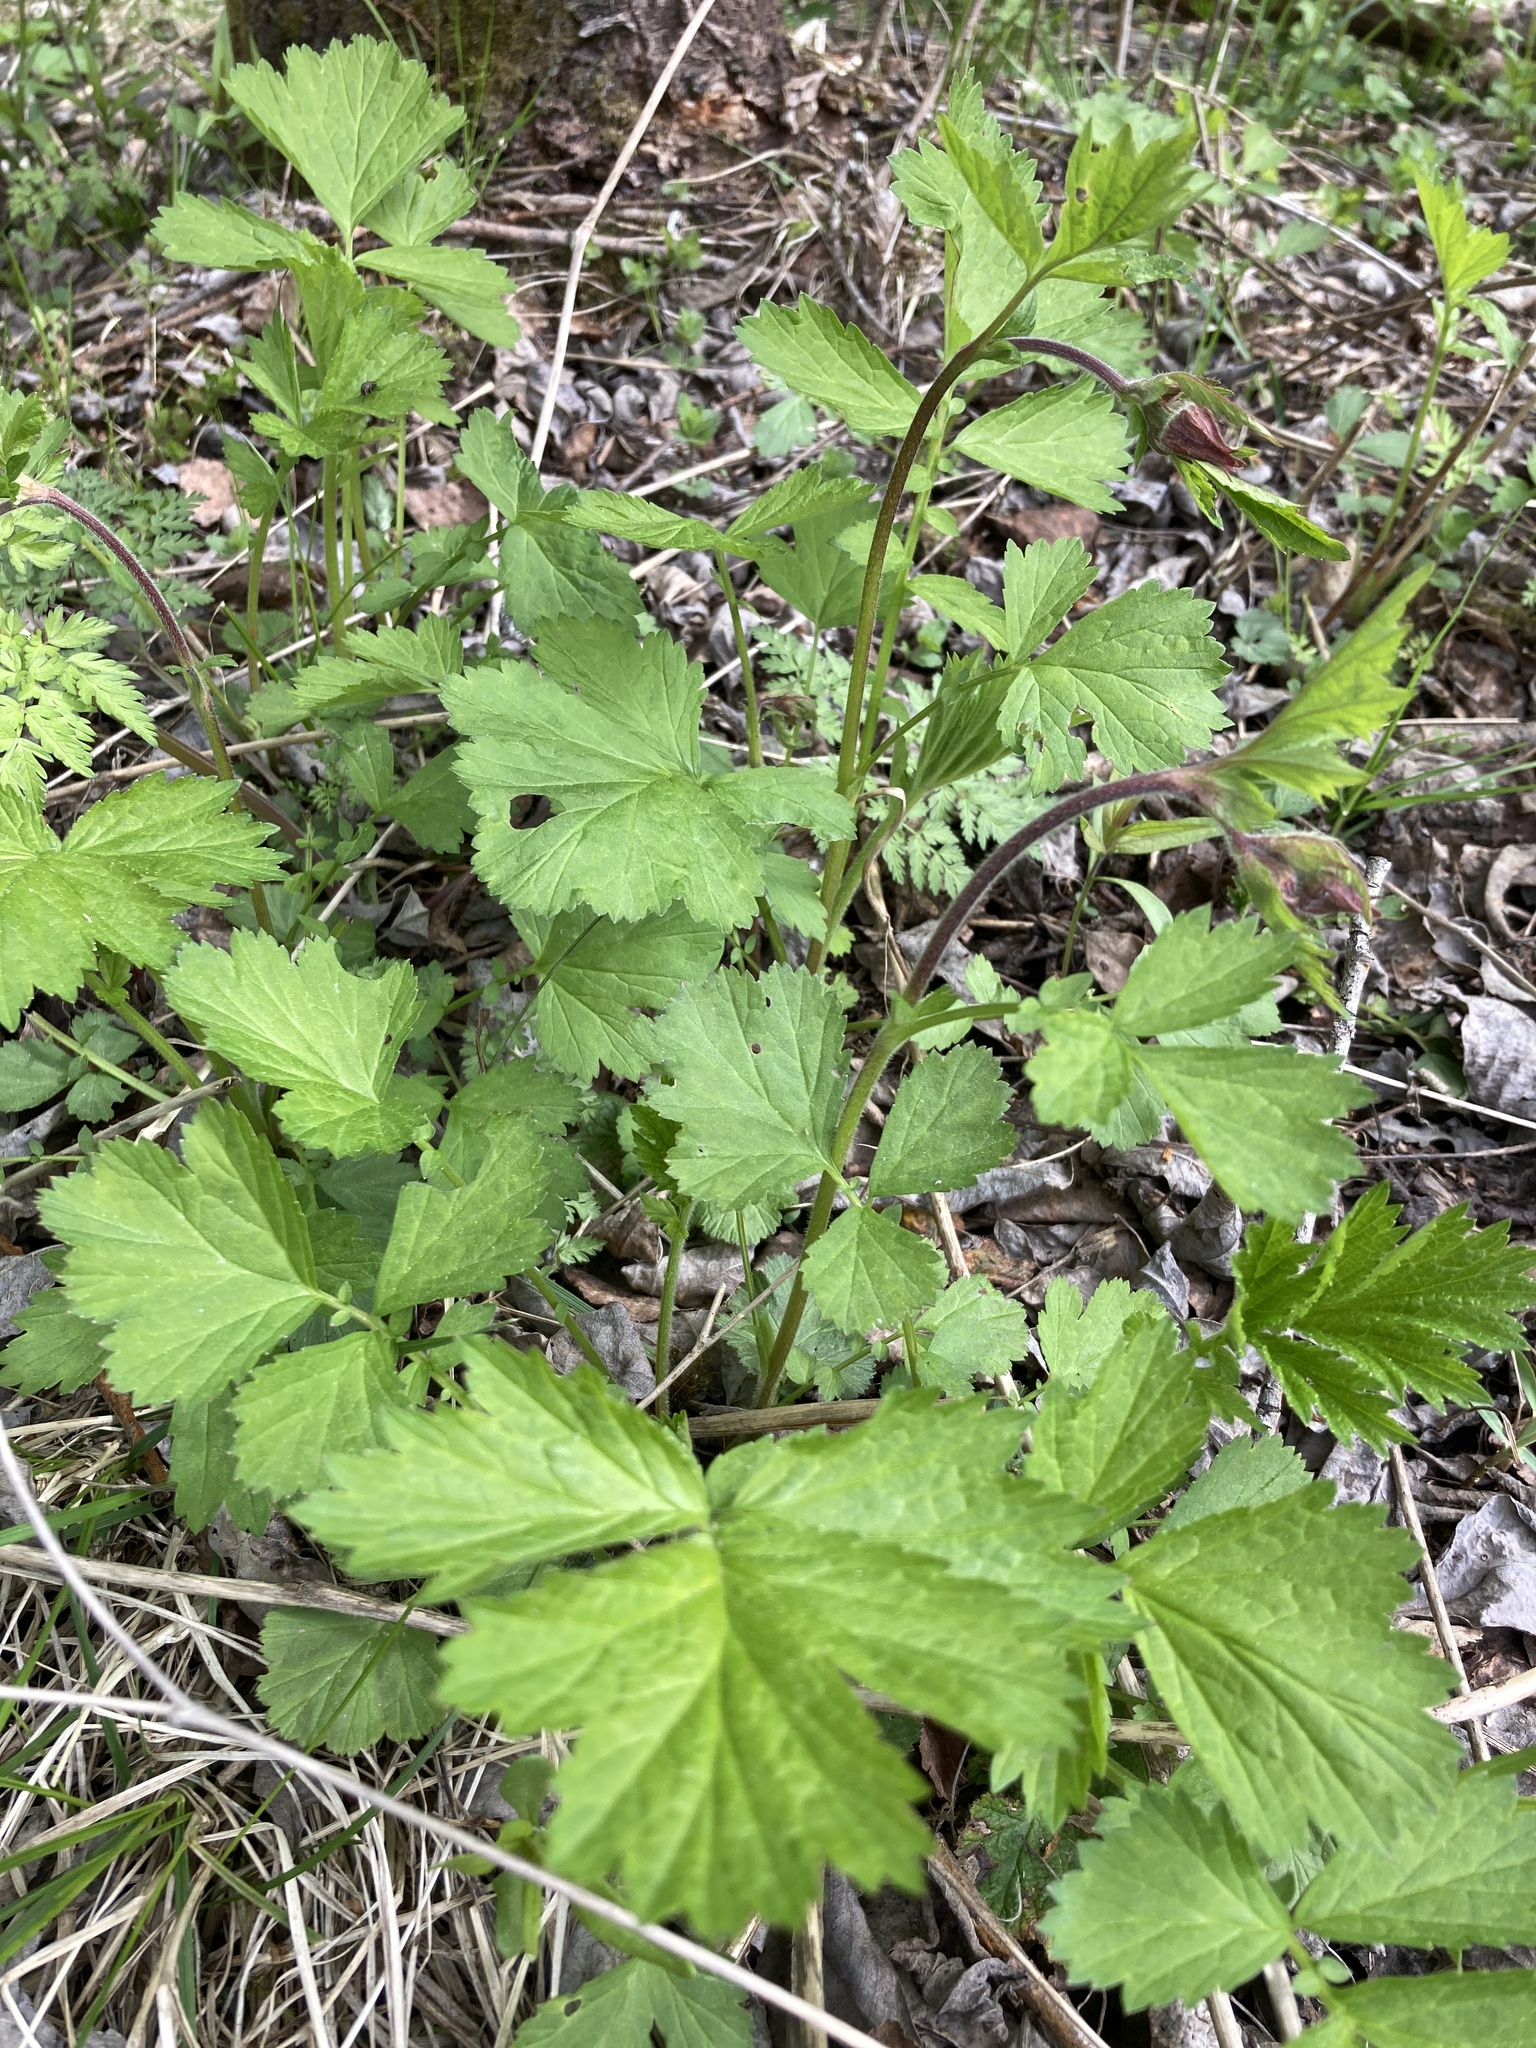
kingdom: Plantae
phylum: Tracheophyta
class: Magnoliopsida
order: Rosales
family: Rosaceae
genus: Geum
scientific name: Geum rivale
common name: Water avens
